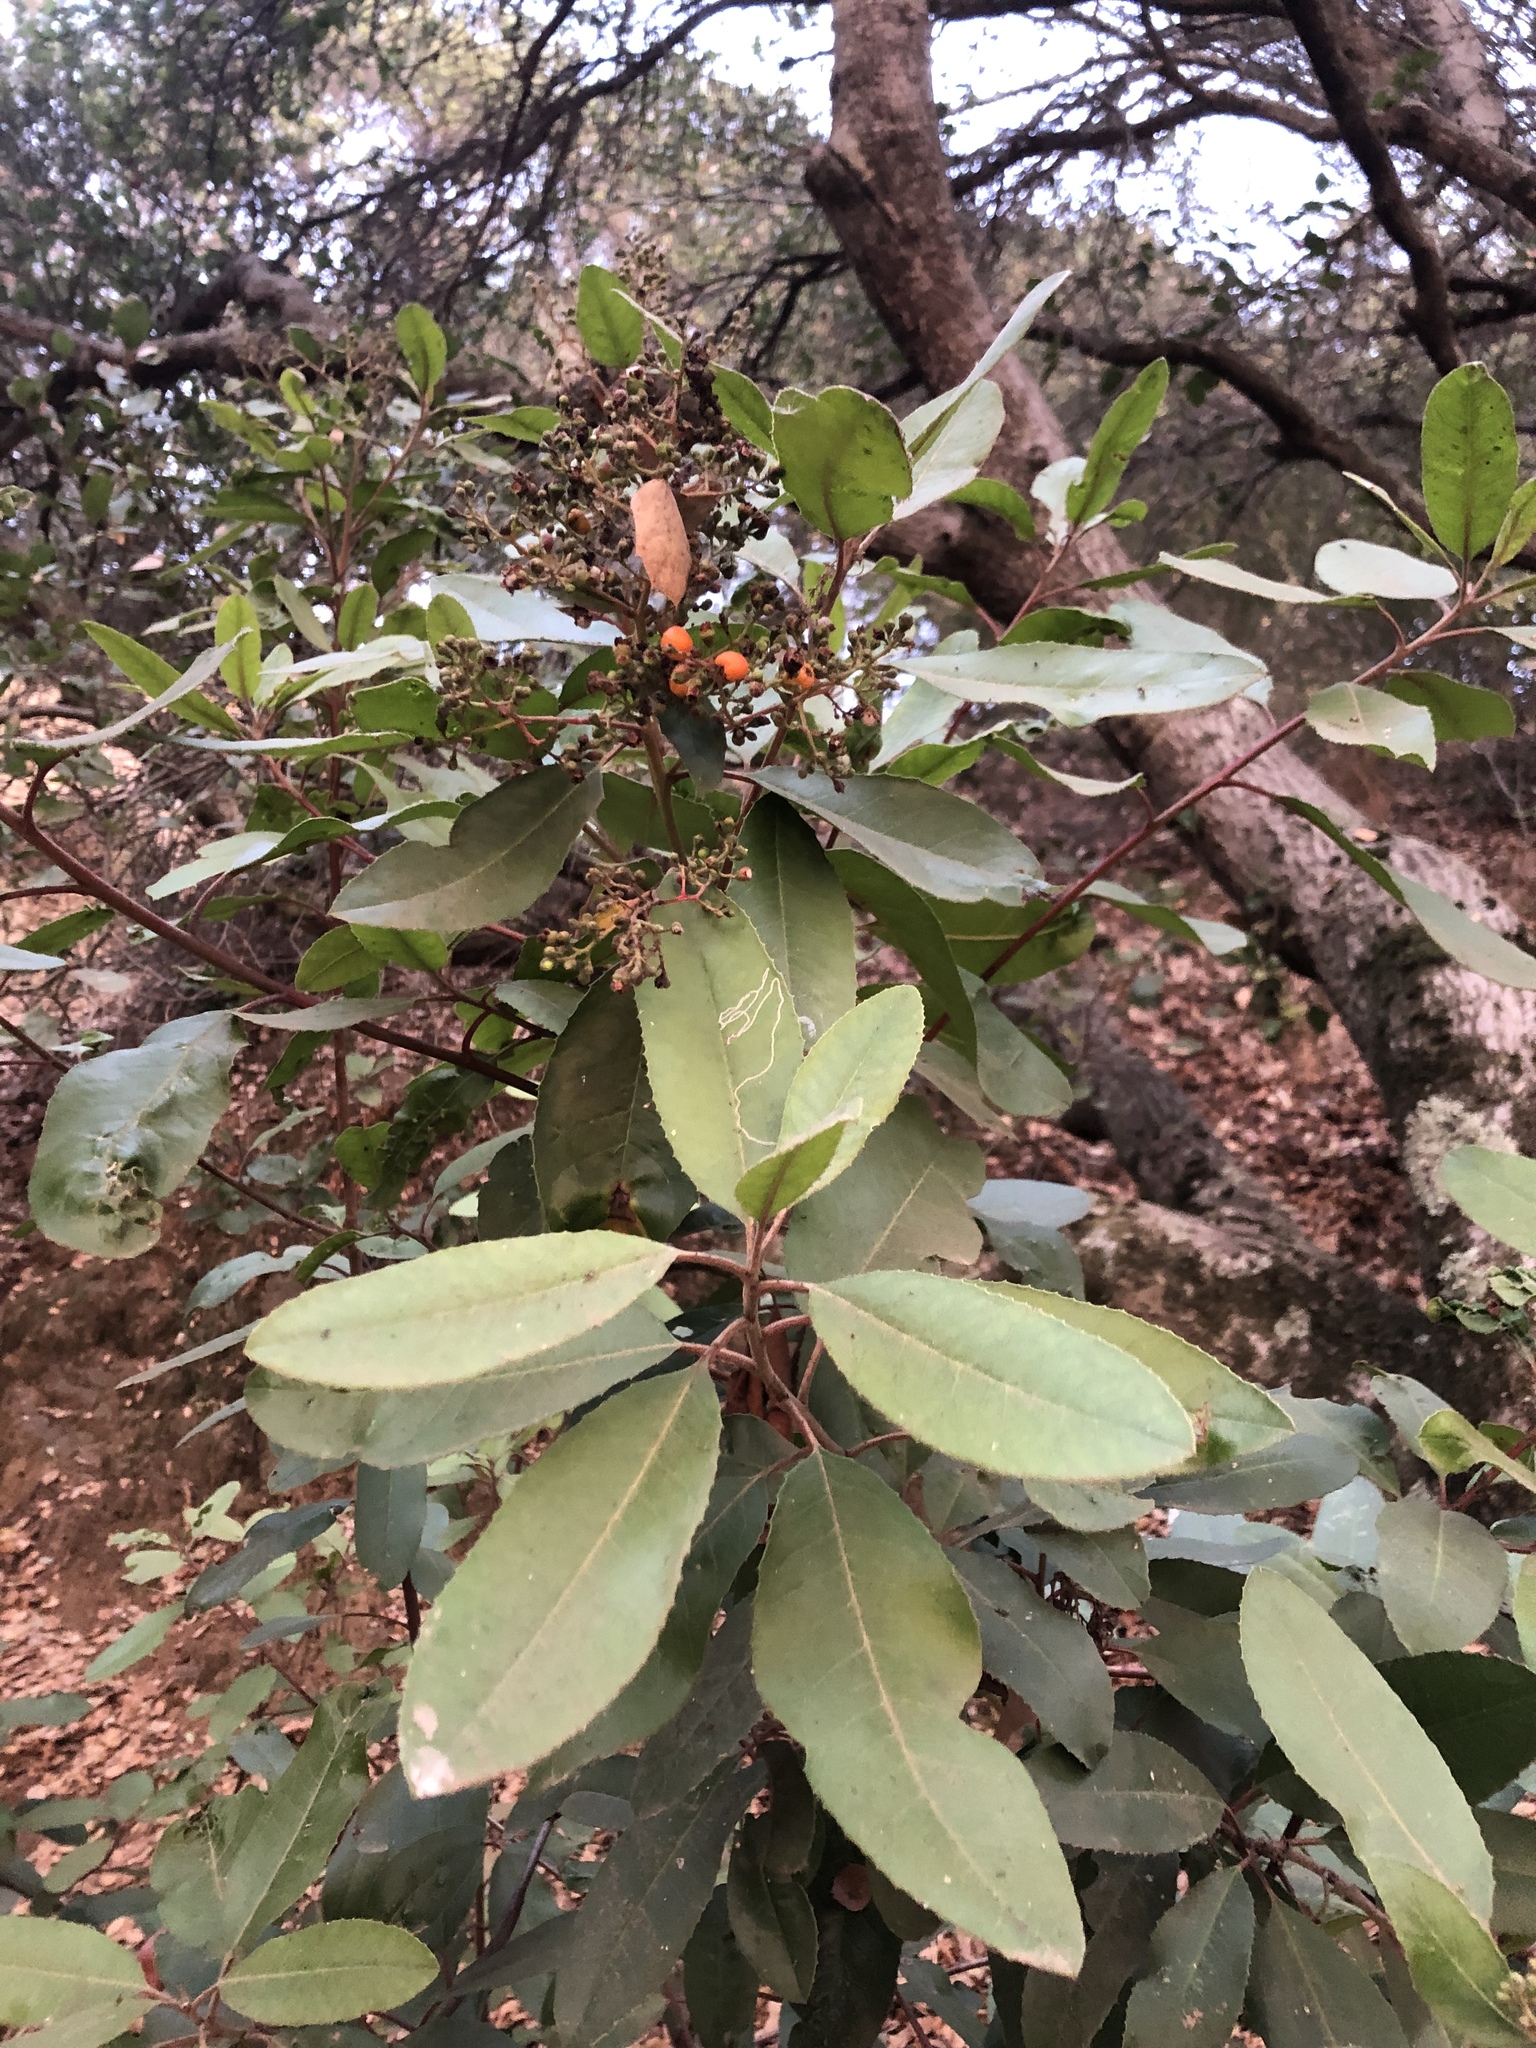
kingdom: Plantae
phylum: Tracheophyta
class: Magnoliopsida
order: Rosales
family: Rosaceae
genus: Heteromeles
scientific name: Heteromeles arbutifolia
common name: California-holly
